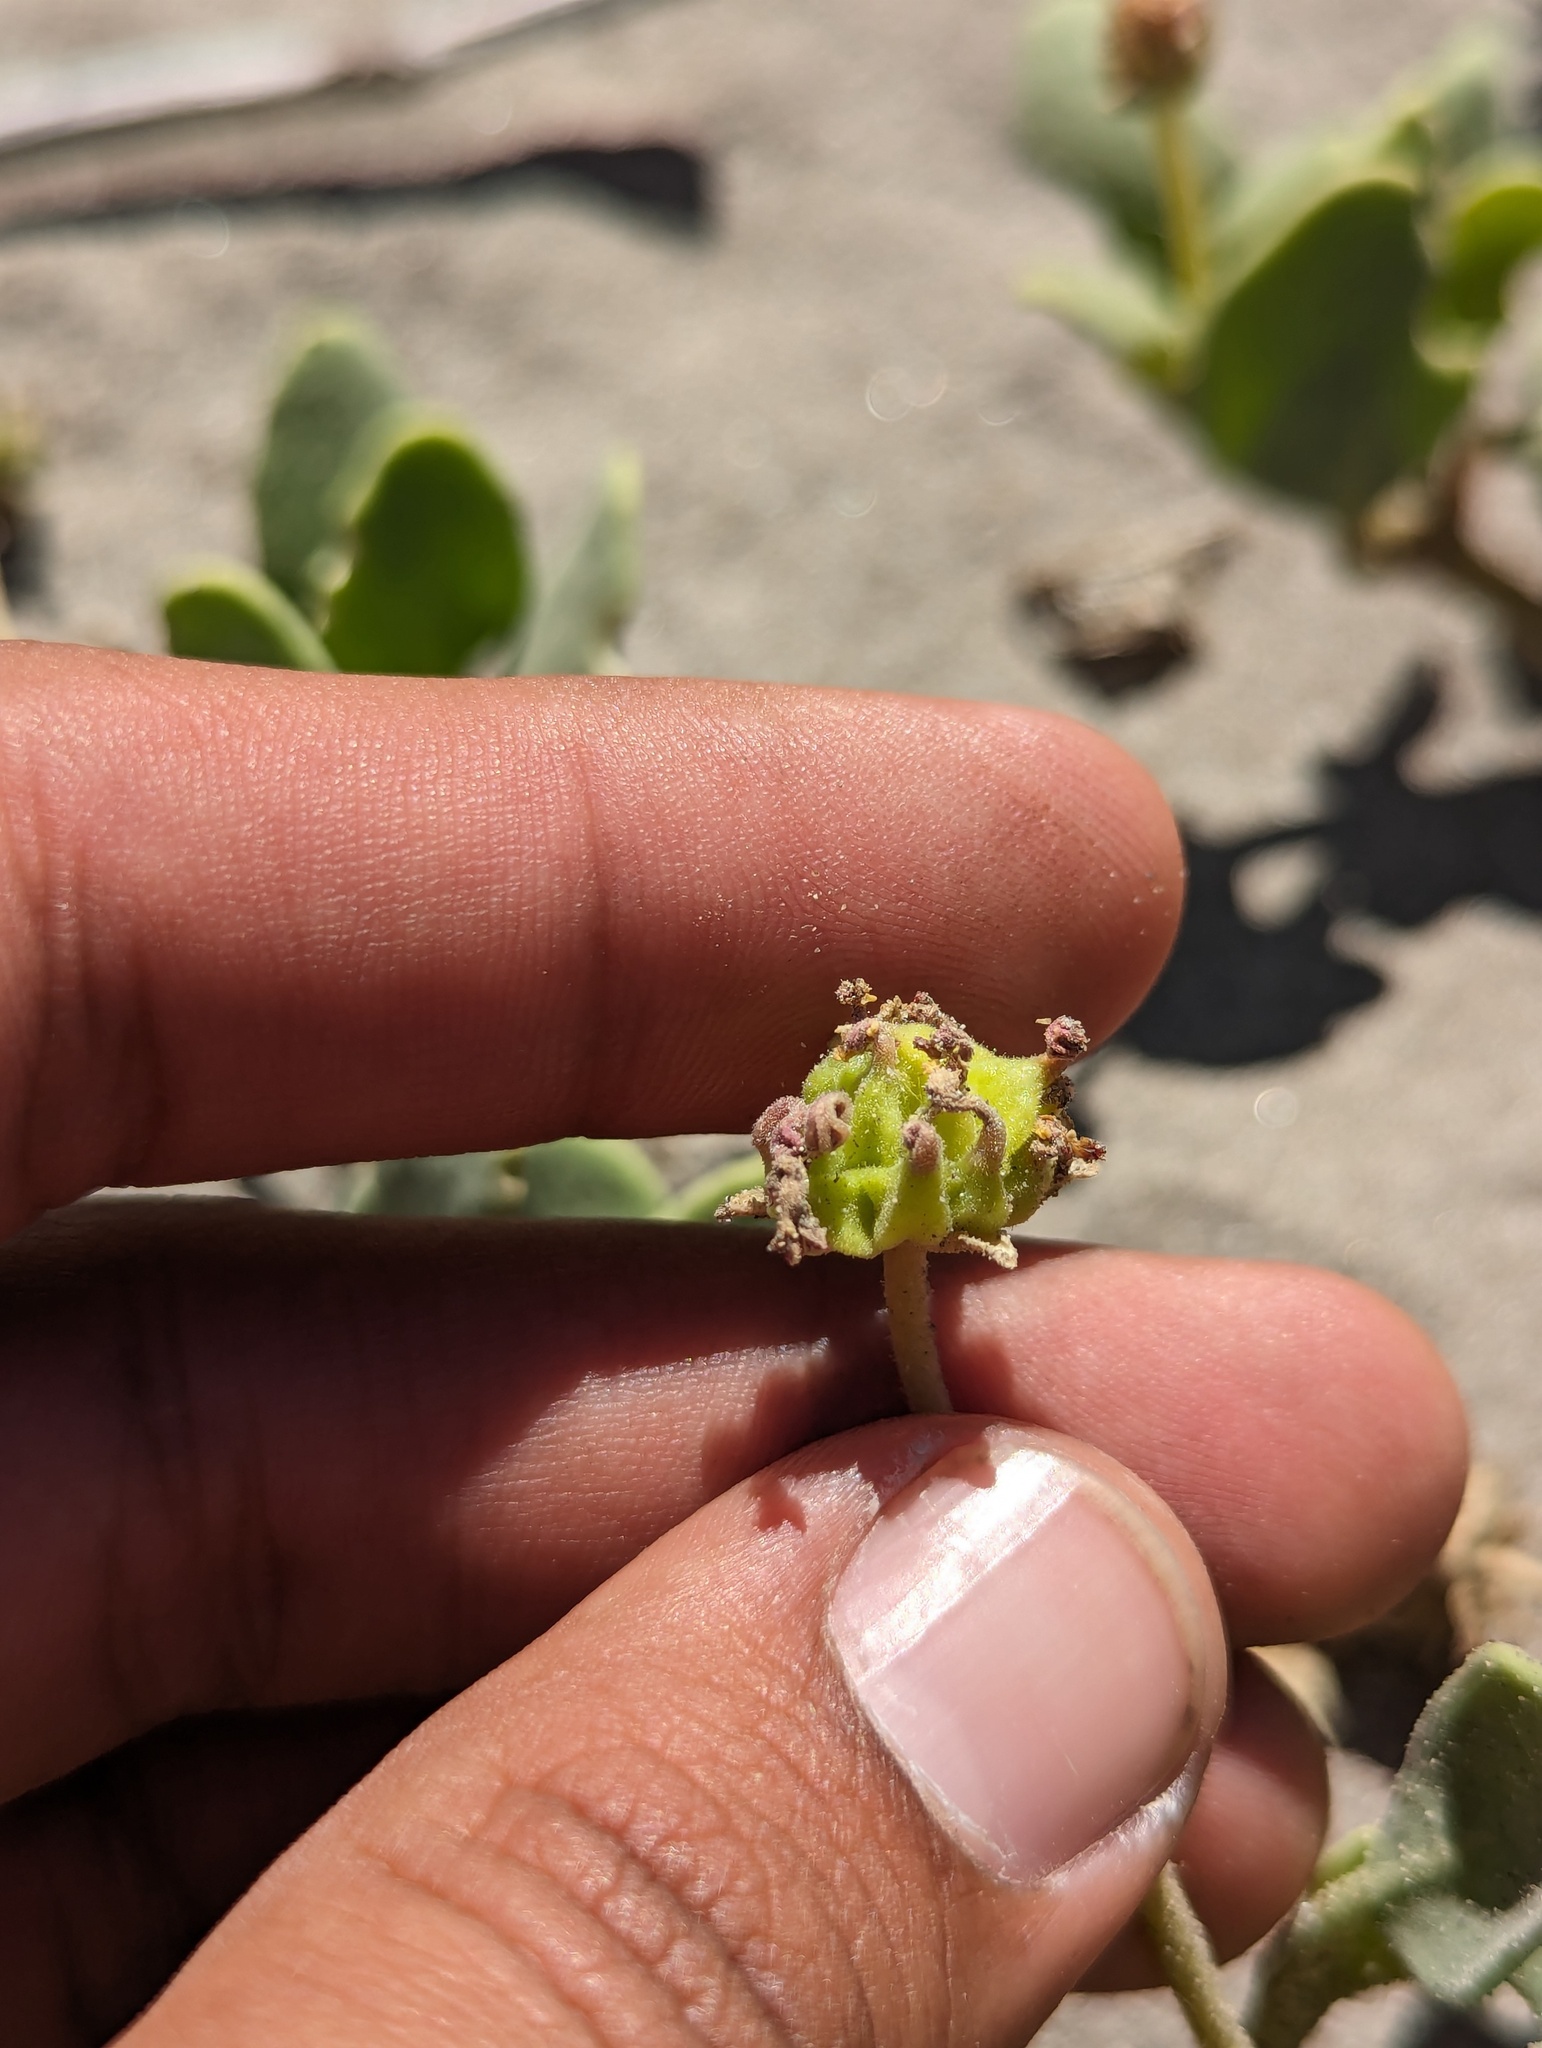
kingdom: Plantae
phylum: Tracheophyta
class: Magnoliopsida
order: Caryophyllales
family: Nyctaginaceae
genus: Abronia
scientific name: Abronia maritima
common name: Red sand-verbena
